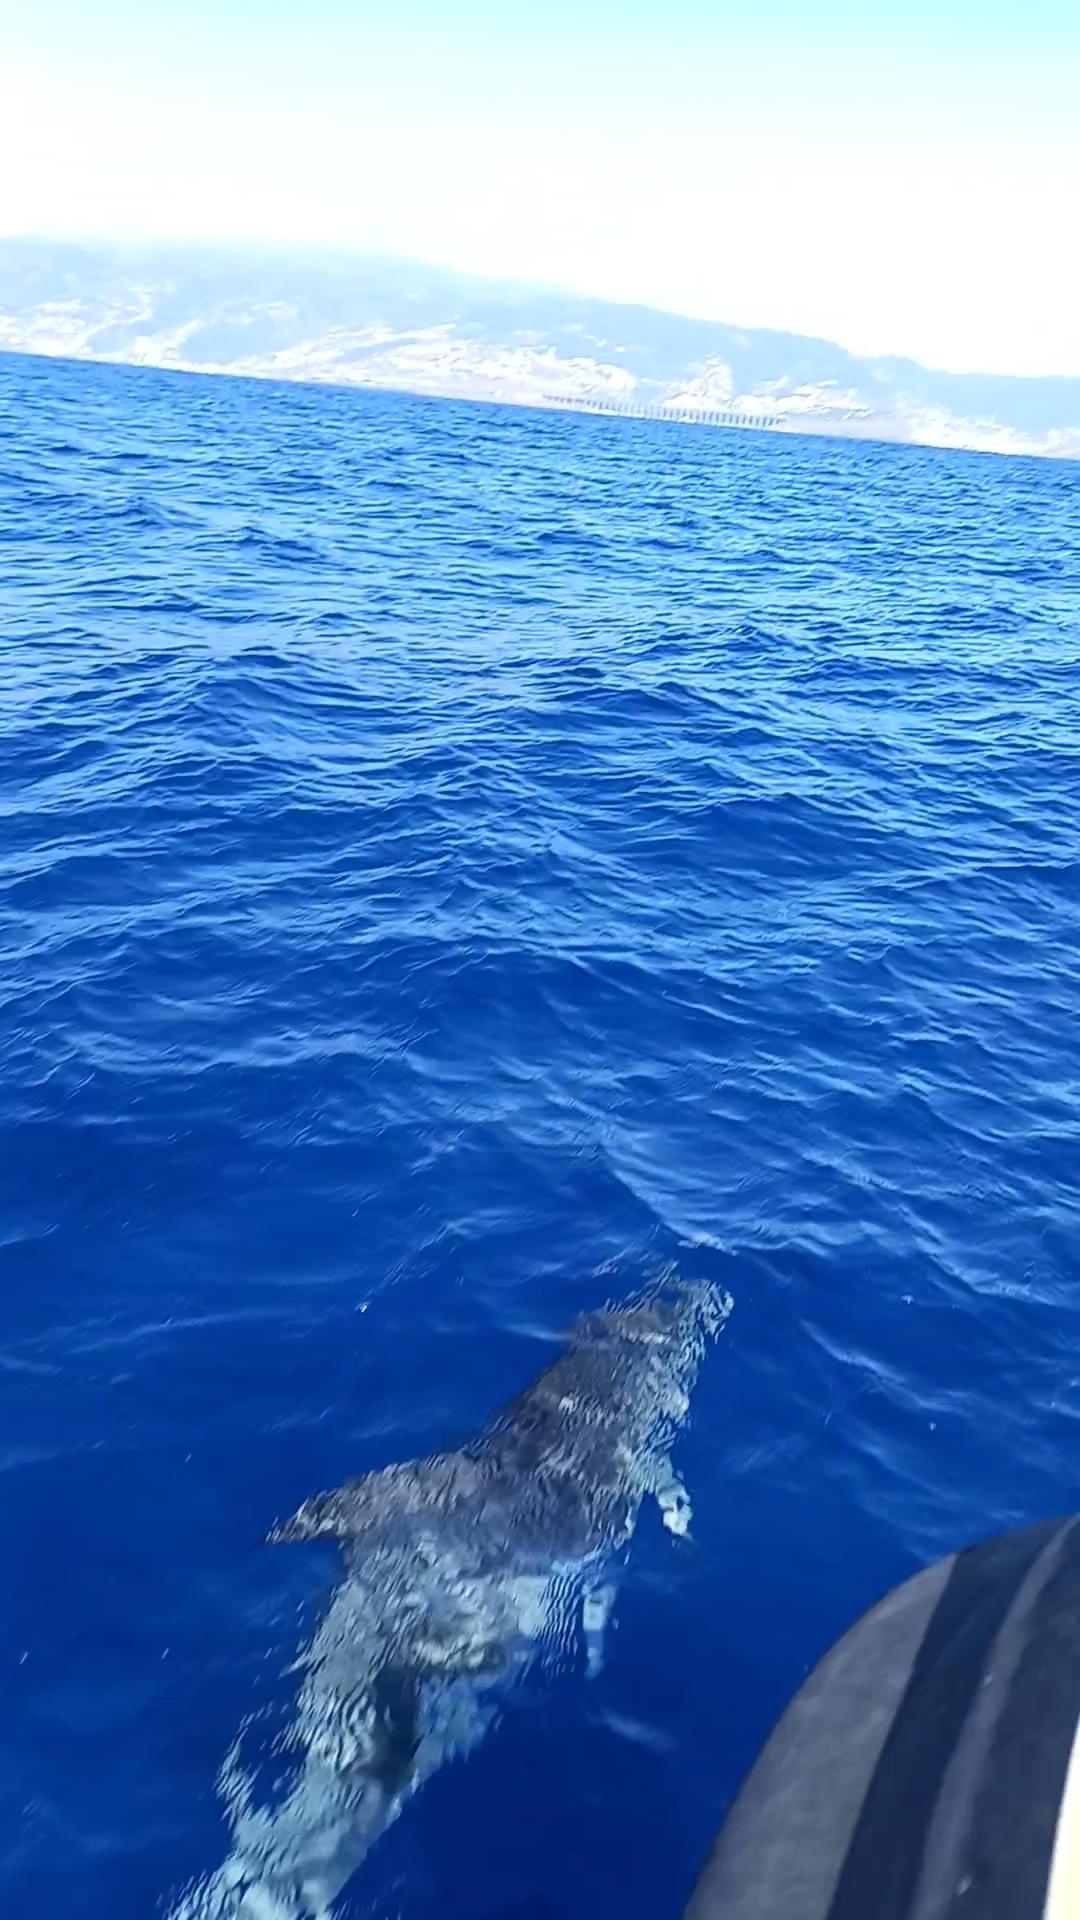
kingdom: Animalia
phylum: Chordata
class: Mammalia
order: Cetacea
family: Delphinidae
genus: Tursiops
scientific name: Tursiops truncatus
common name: Bottlenose dolphin
